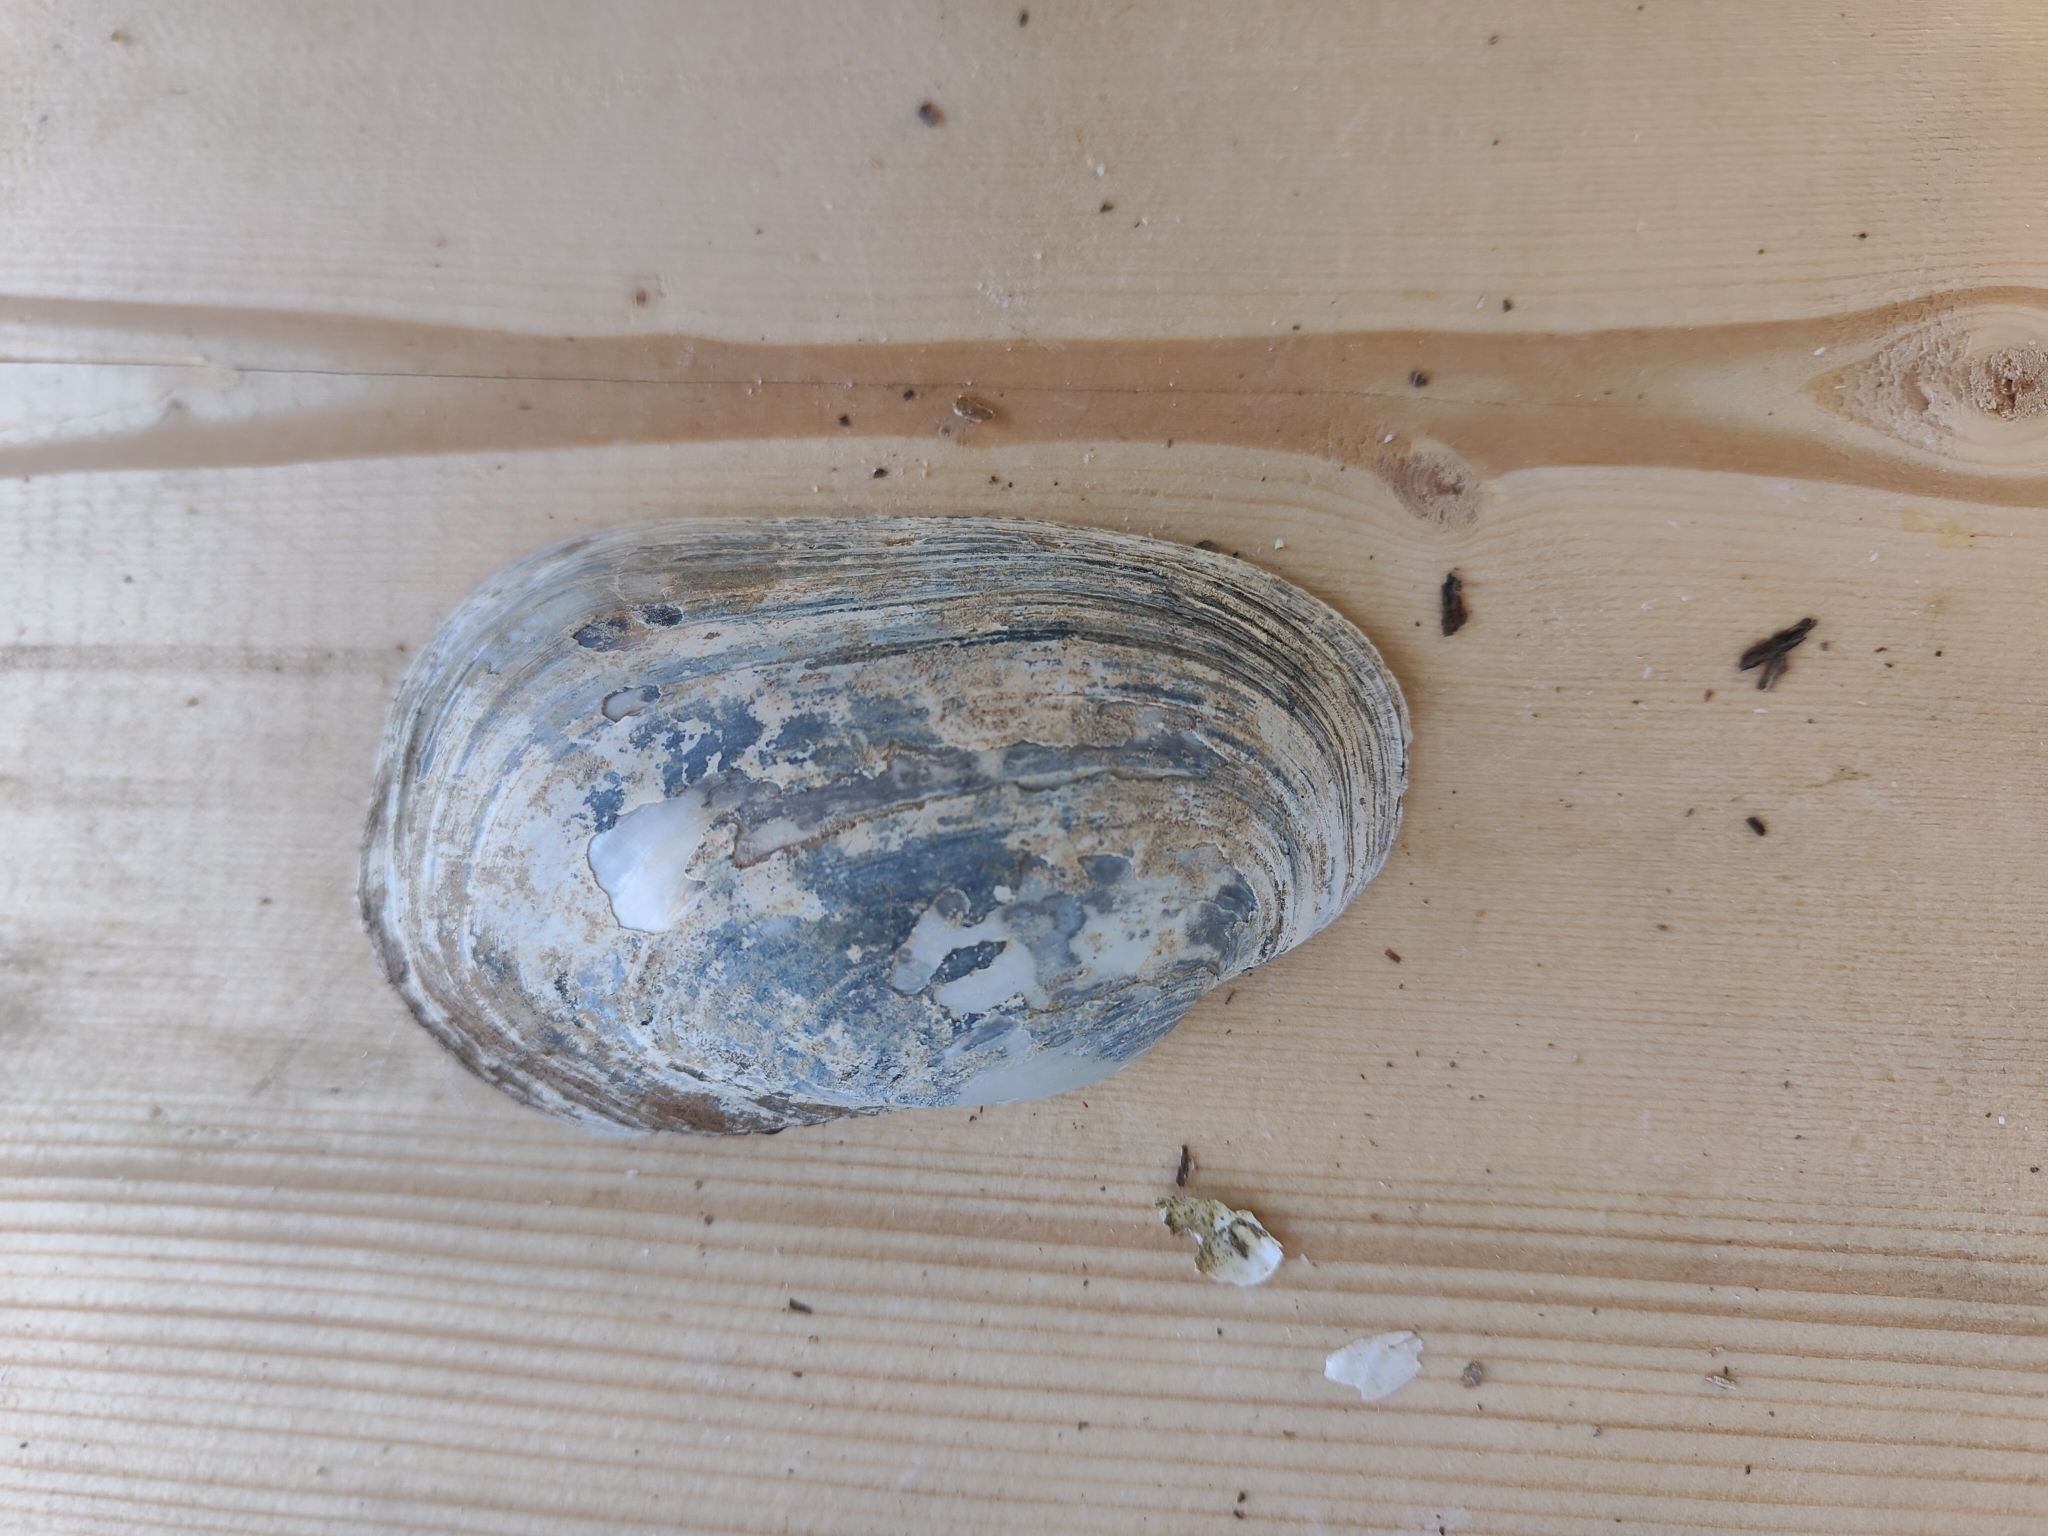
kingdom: Animalia
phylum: Mollusca
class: Bivalvia
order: Unionida
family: Unionidae
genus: Lampsilis
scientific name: Lampsilis siliquoidea
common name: Fatmucket
